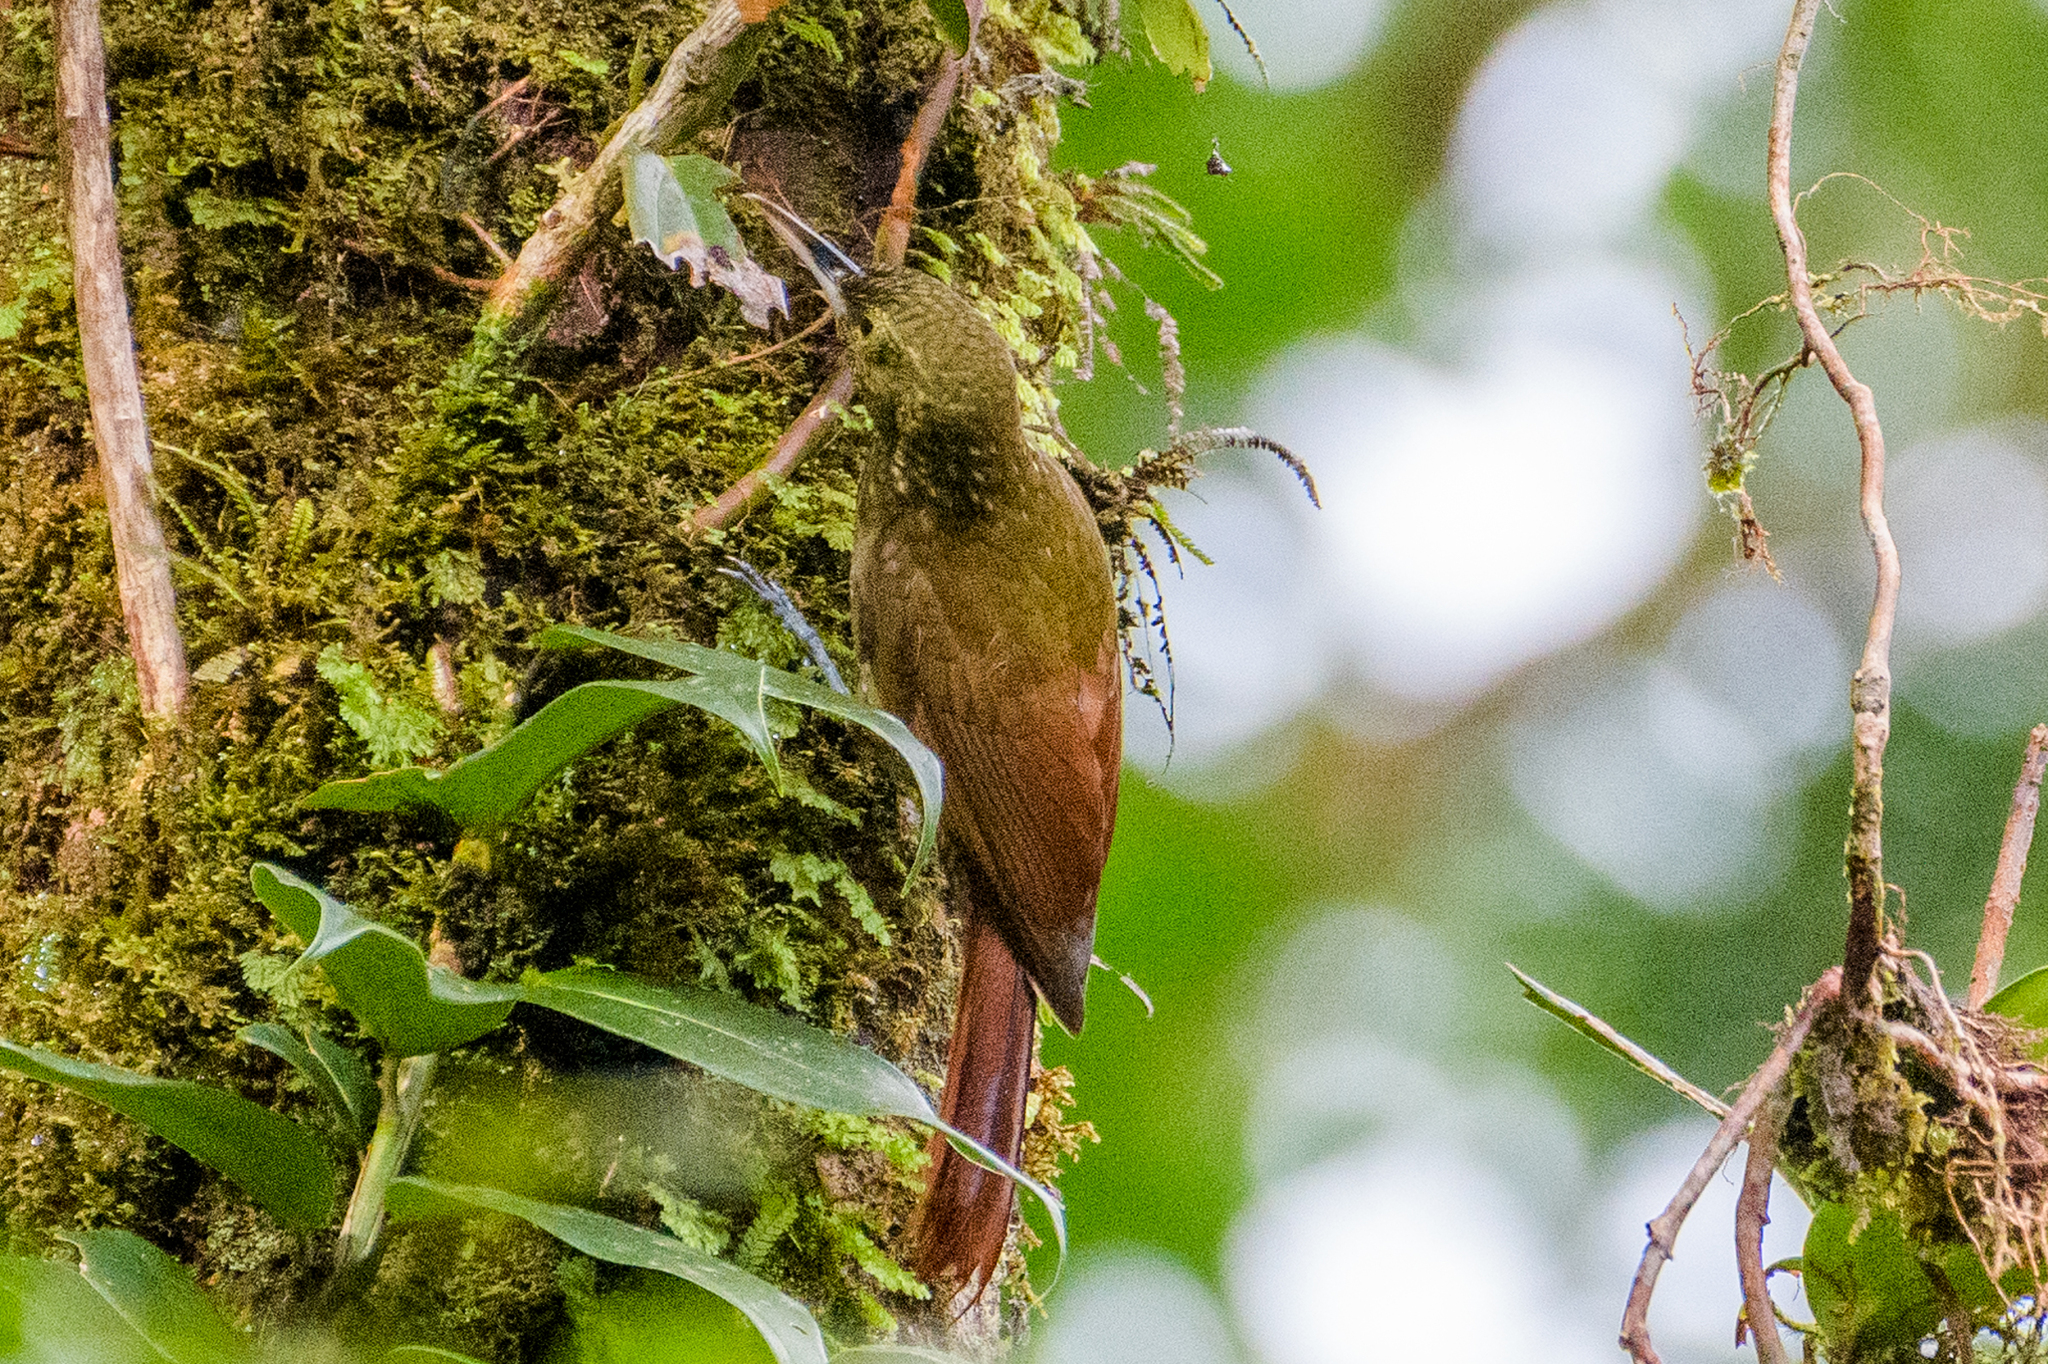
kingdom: Animalia
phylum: Chordata
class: Aves
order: Passeriformes
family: Furnariidae
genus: Xiphorhynchus
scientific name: Xiphorhynchus erythropygius
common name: Spotted woodcreeper
